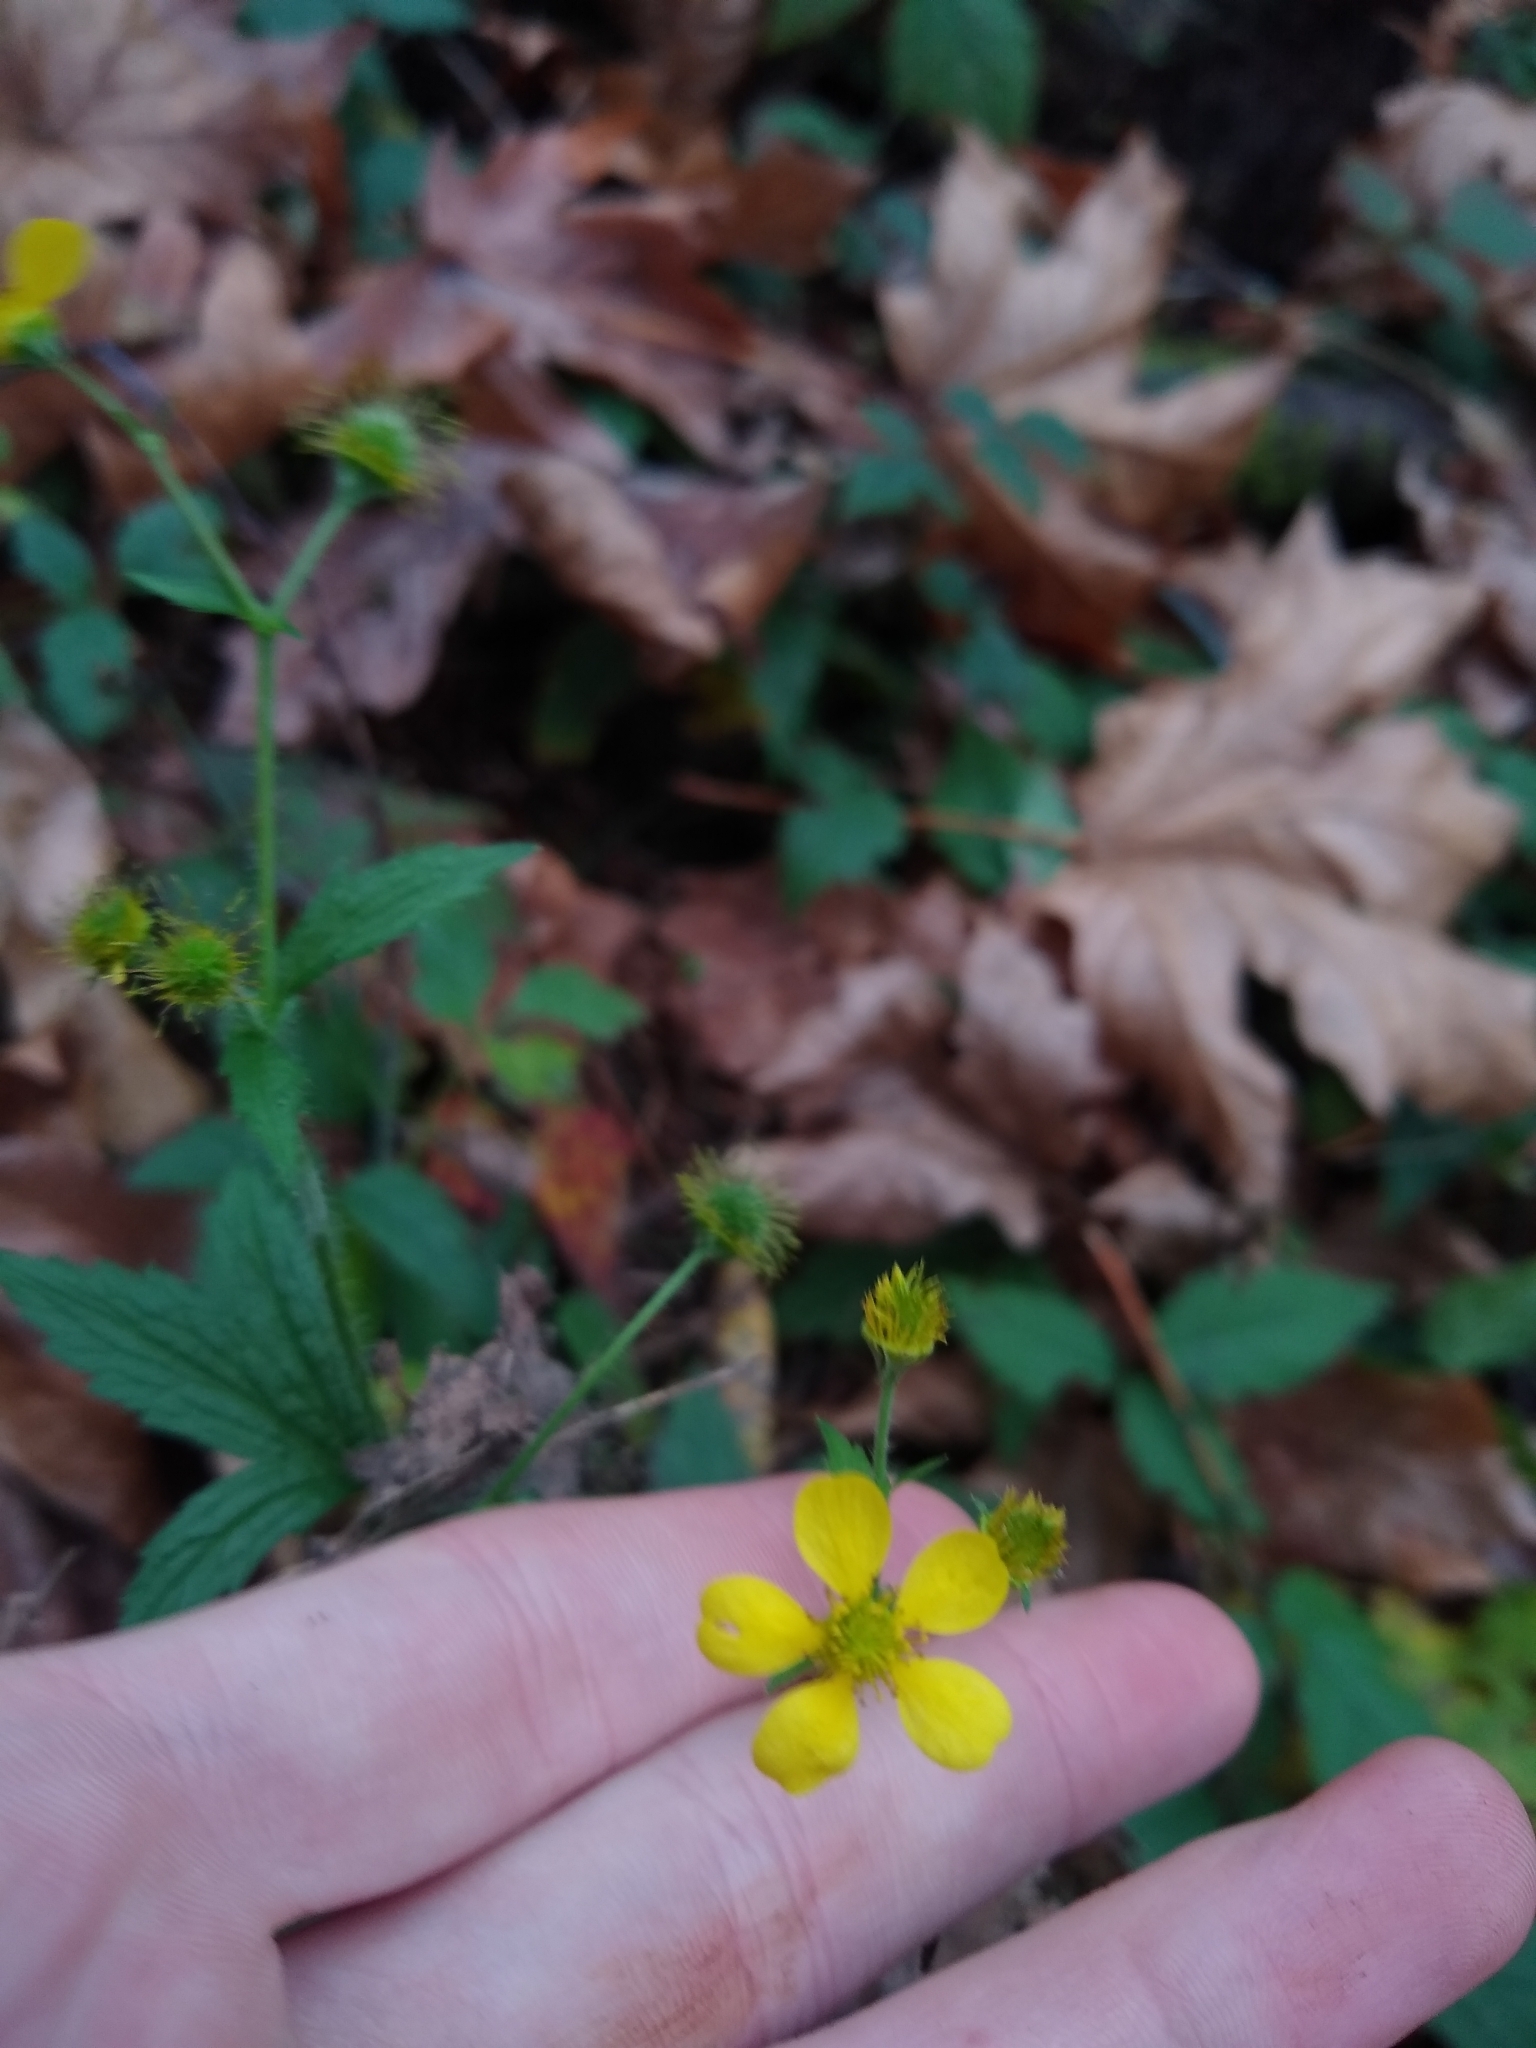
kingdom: Plantae
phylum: Tracheophyta
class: Magnoliopsida
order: Rosales
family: Rosaceae
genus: Geum
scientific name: Geum
